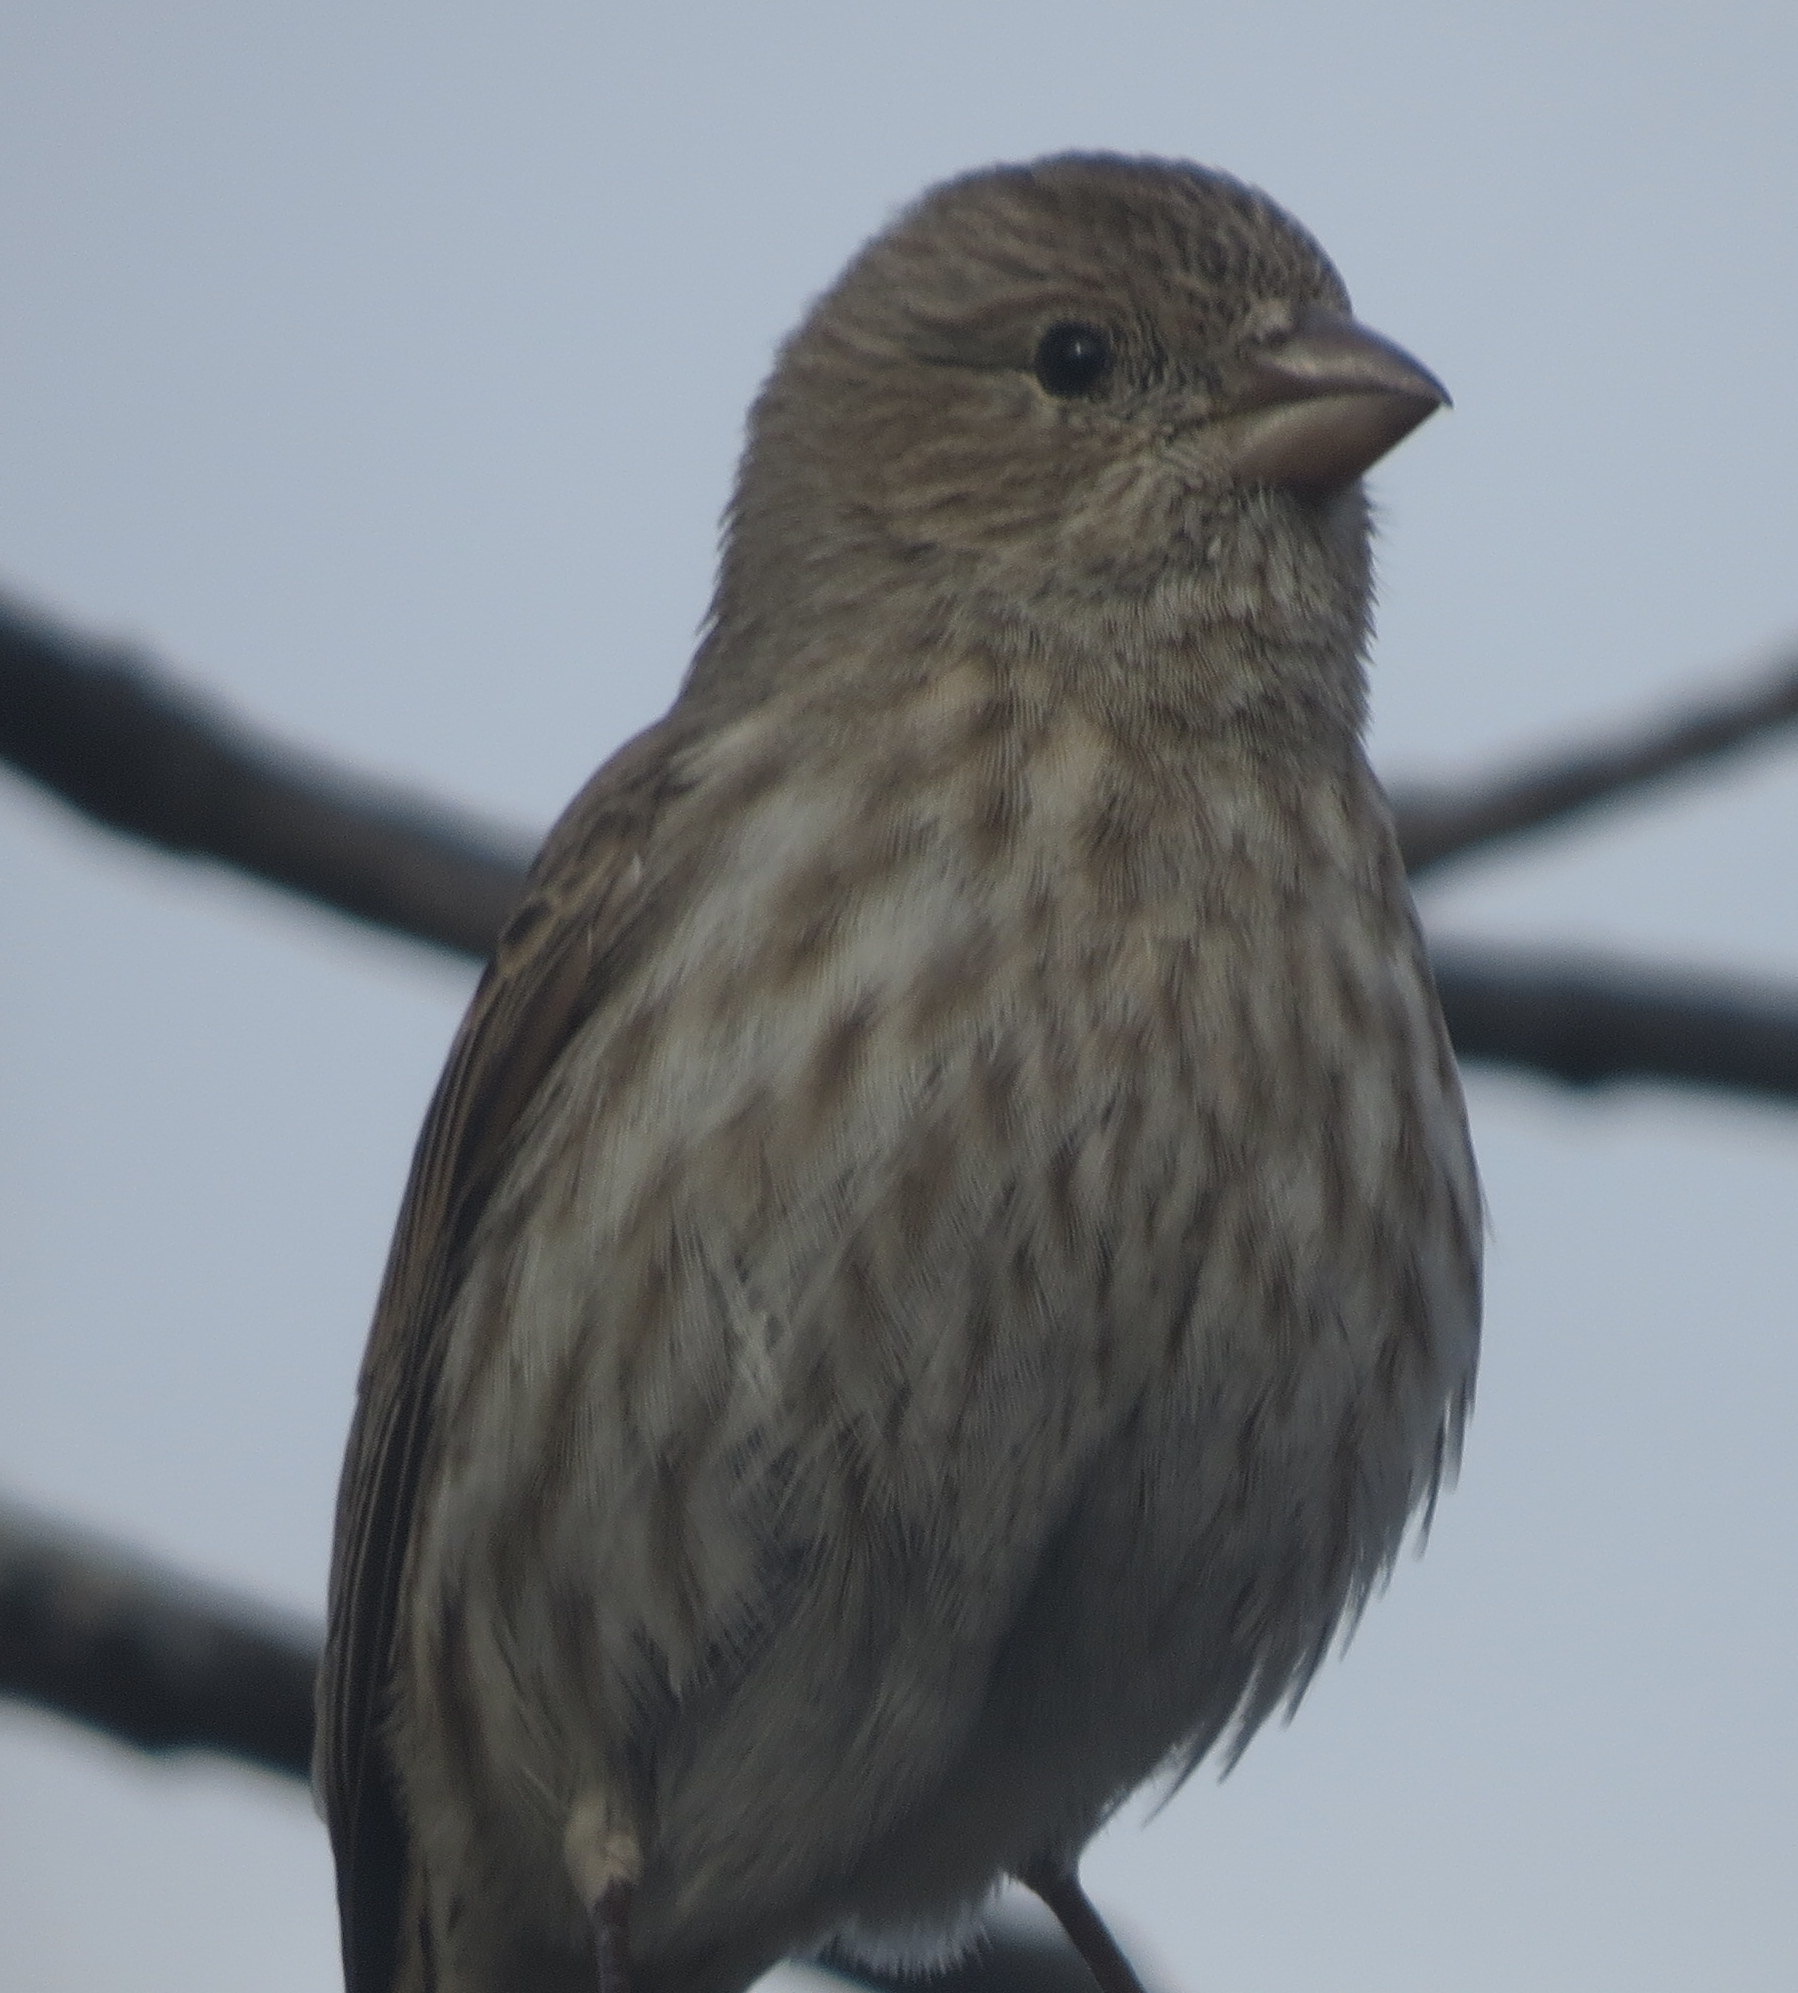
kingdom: Animalia
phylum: Chordata
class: Aves
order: Passeriformes
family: Fringillidae
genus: Haemorhous
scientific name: Haemorhous mexicanus
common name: House finch
